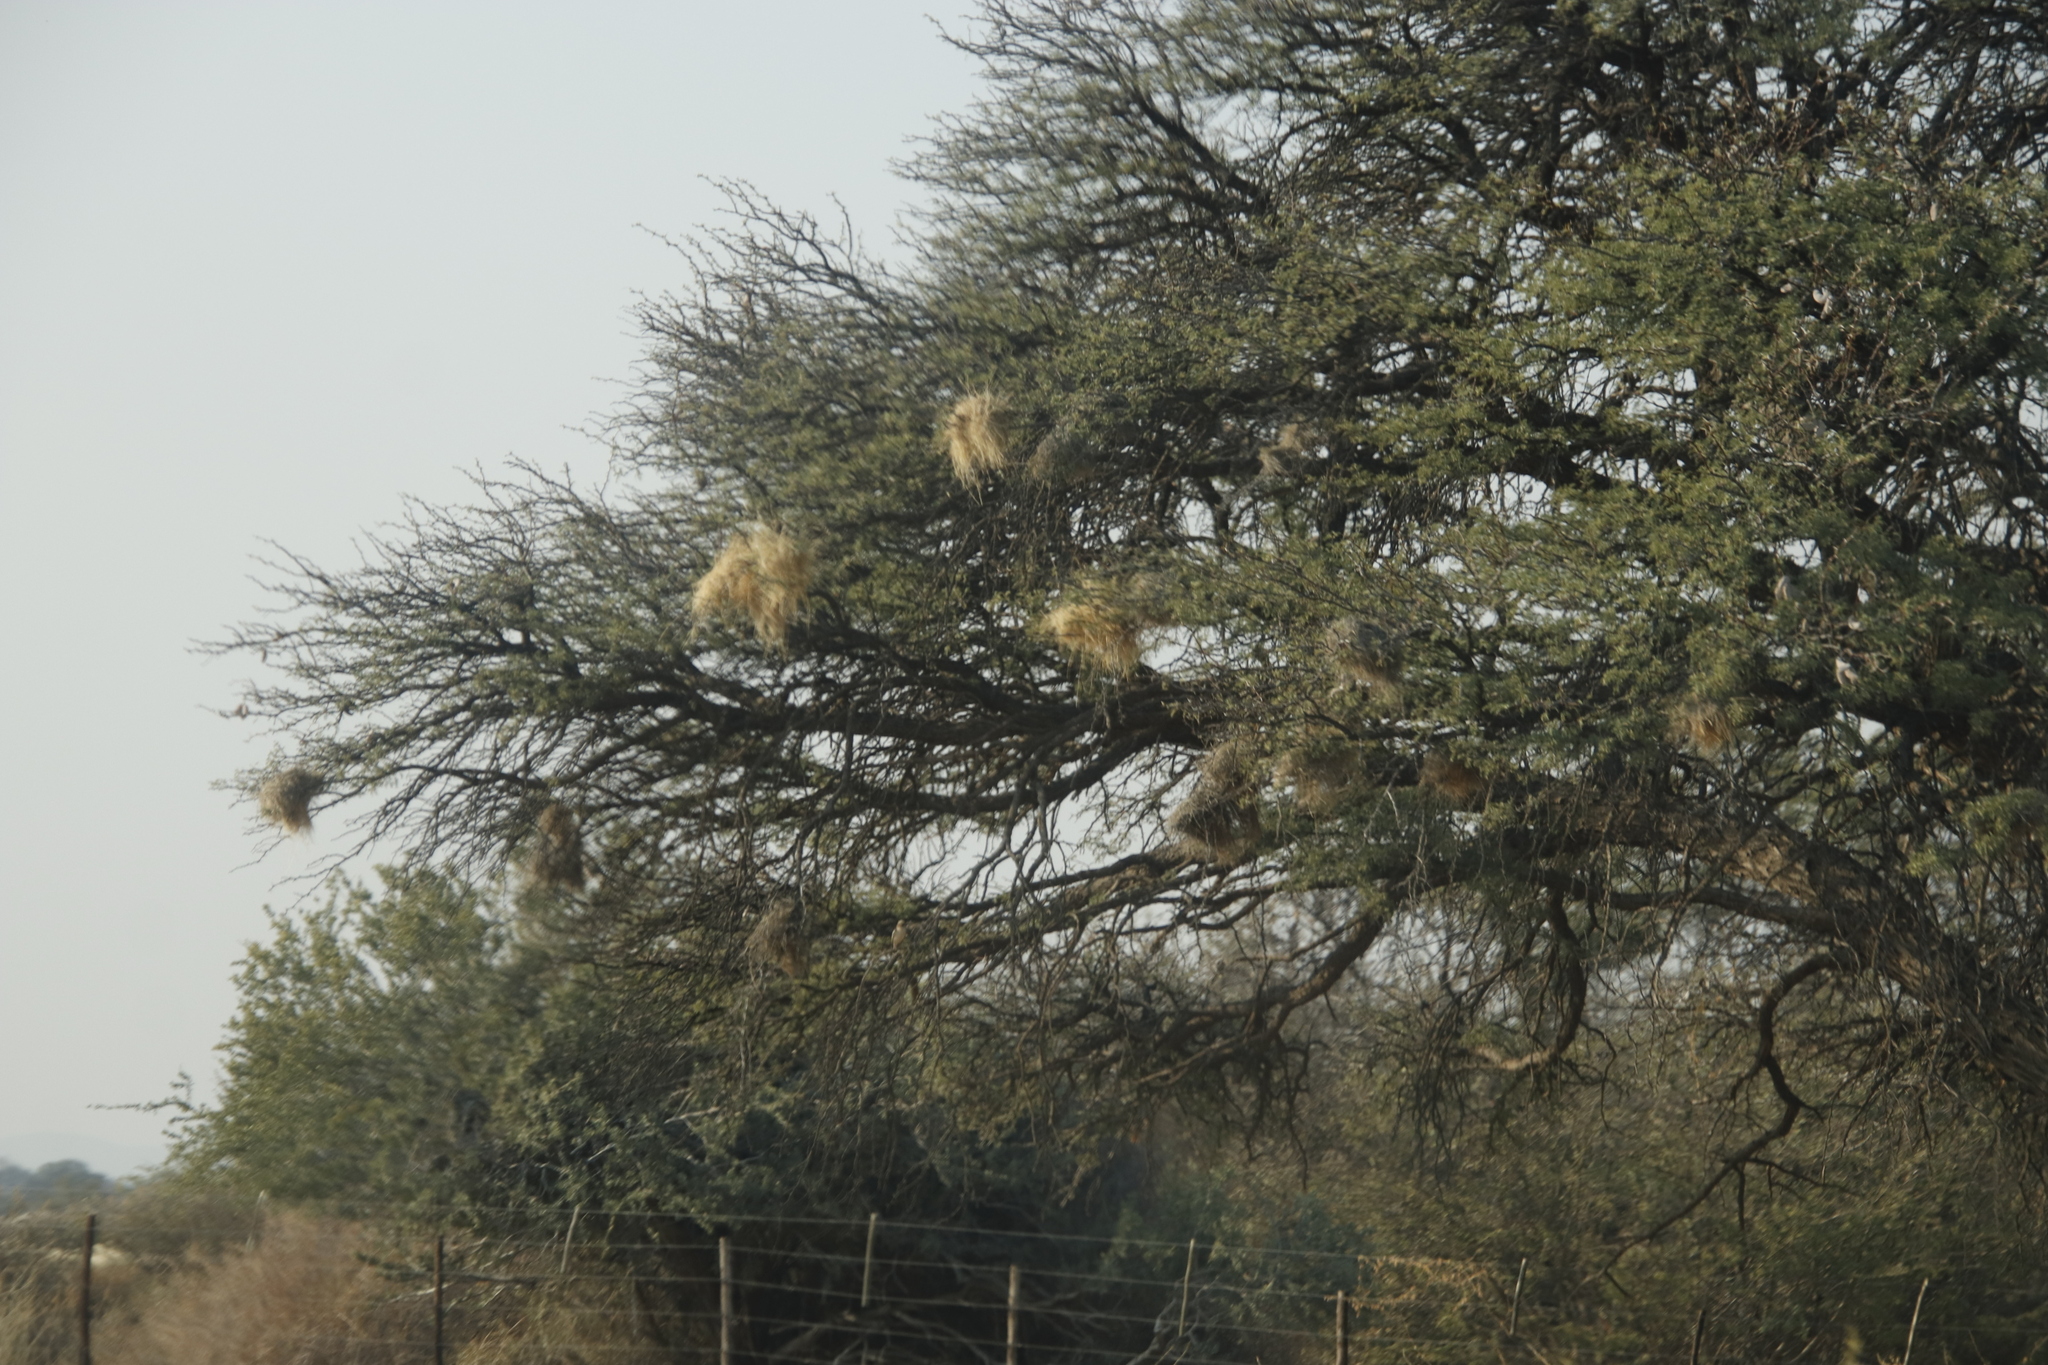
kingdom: Animalia
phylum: Chordata
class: Aves
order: Passeriformes
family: Passeridae
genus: Plocepasser
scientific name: Plocepasser mahali
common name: White-browed sparrow-weaver
